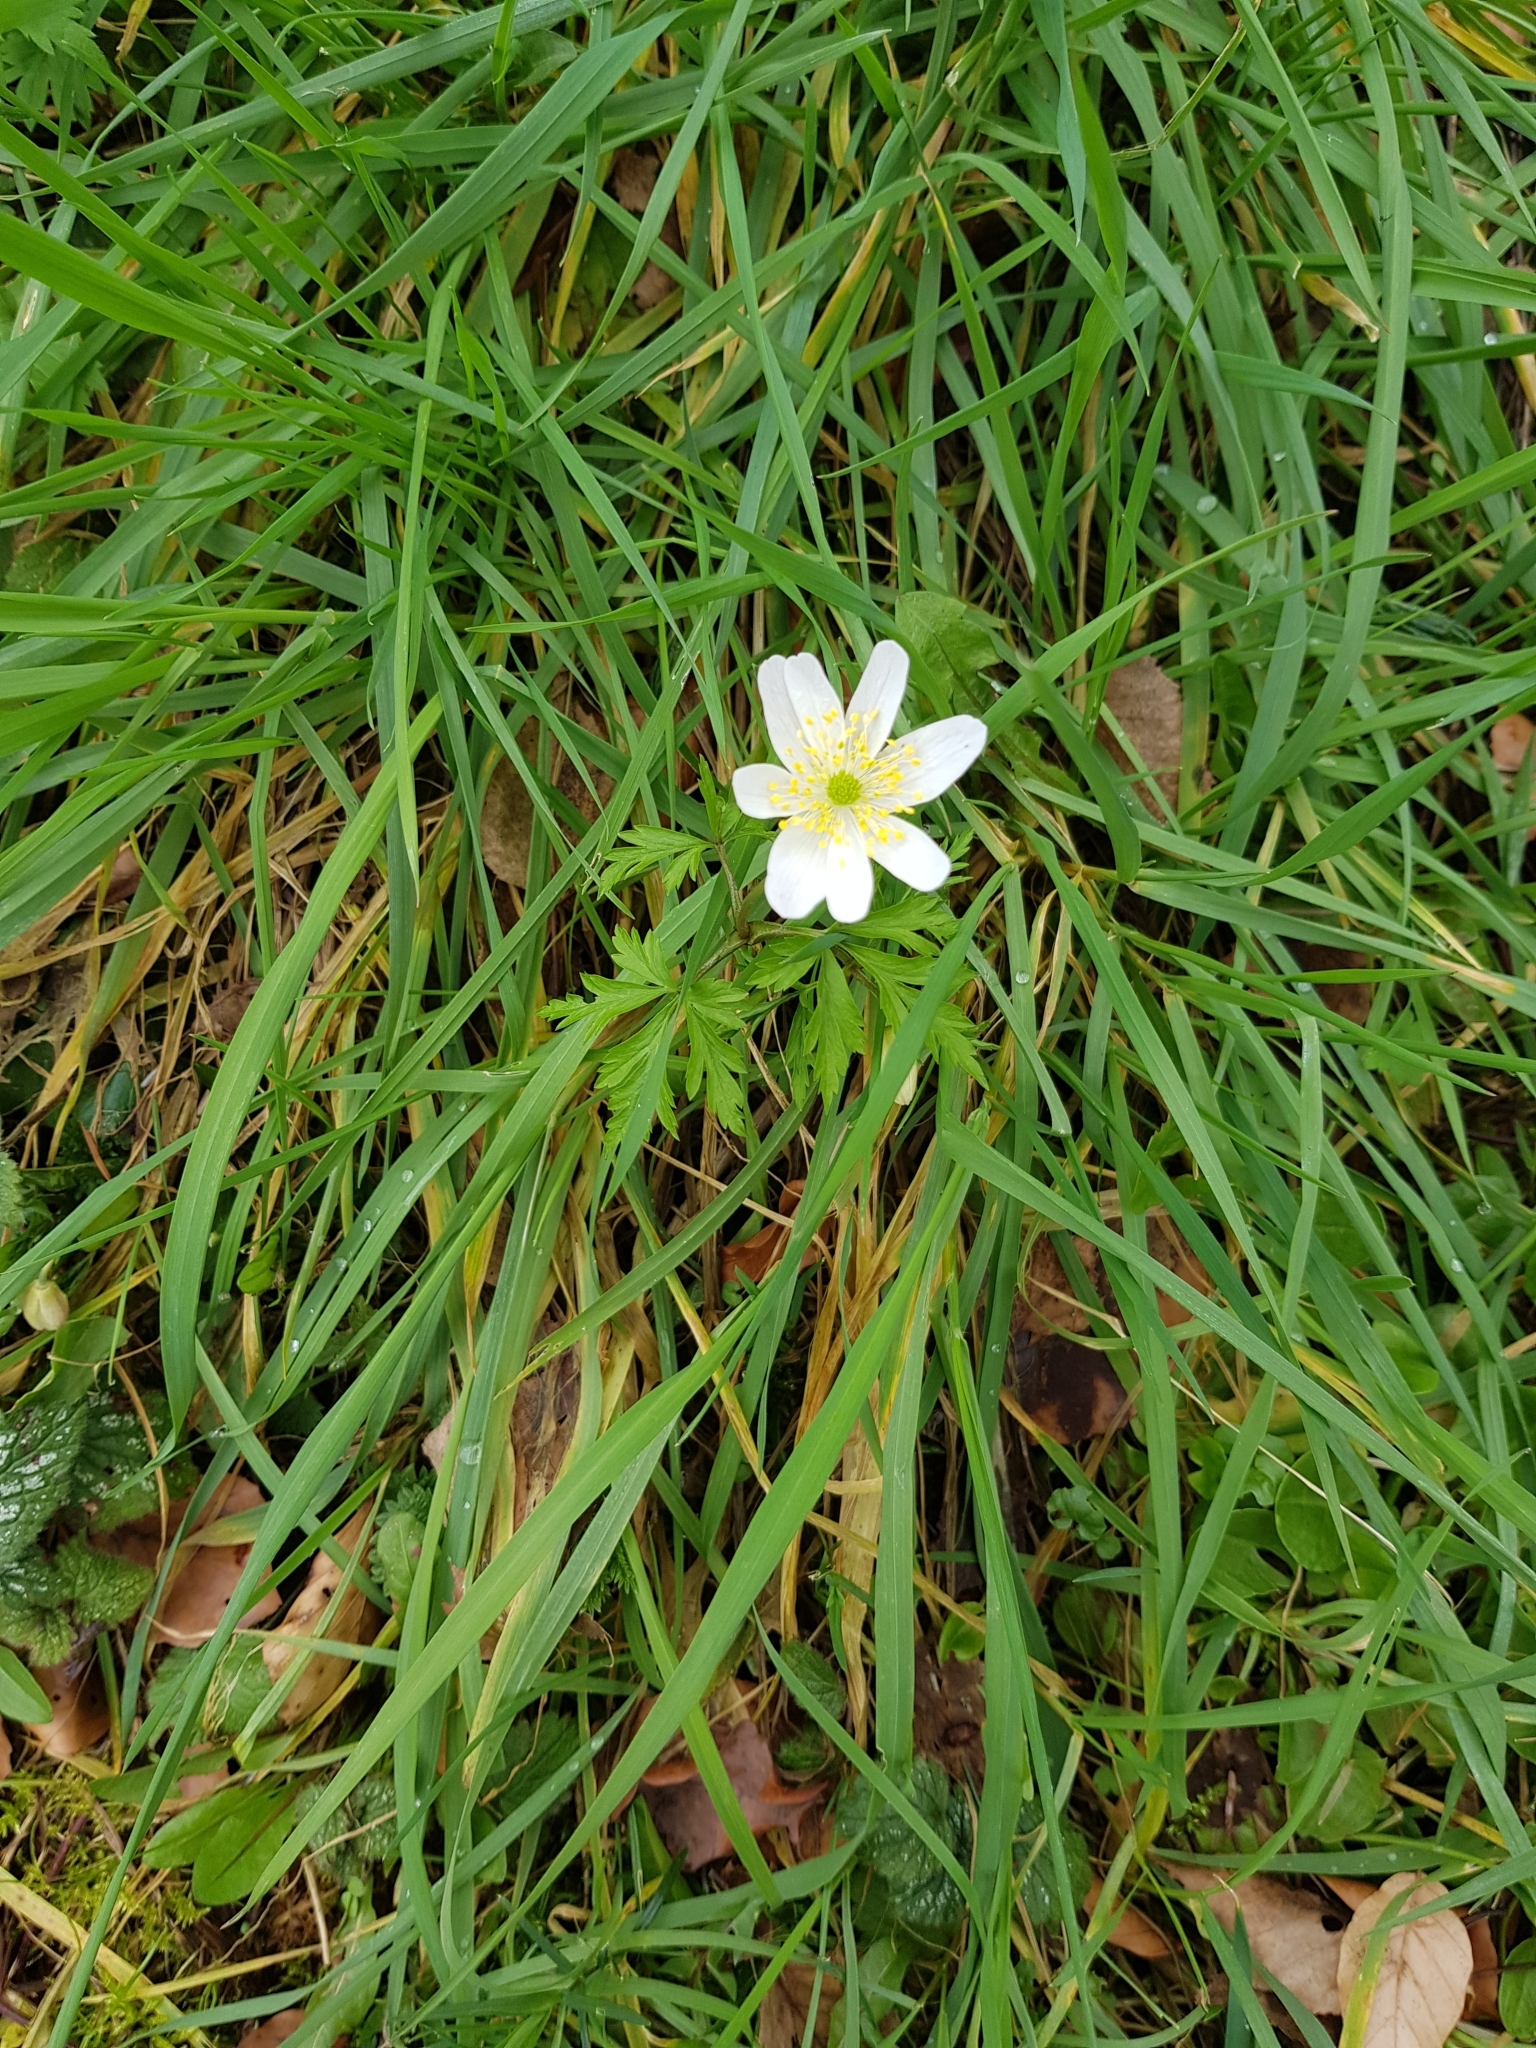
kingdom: Plantae
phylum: Tracheophyta
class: Magnoliopsida
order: Ranunculales
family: Ranunculaceae
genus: Anemone
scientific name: Anemone nemorosa
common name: Wood anemone
